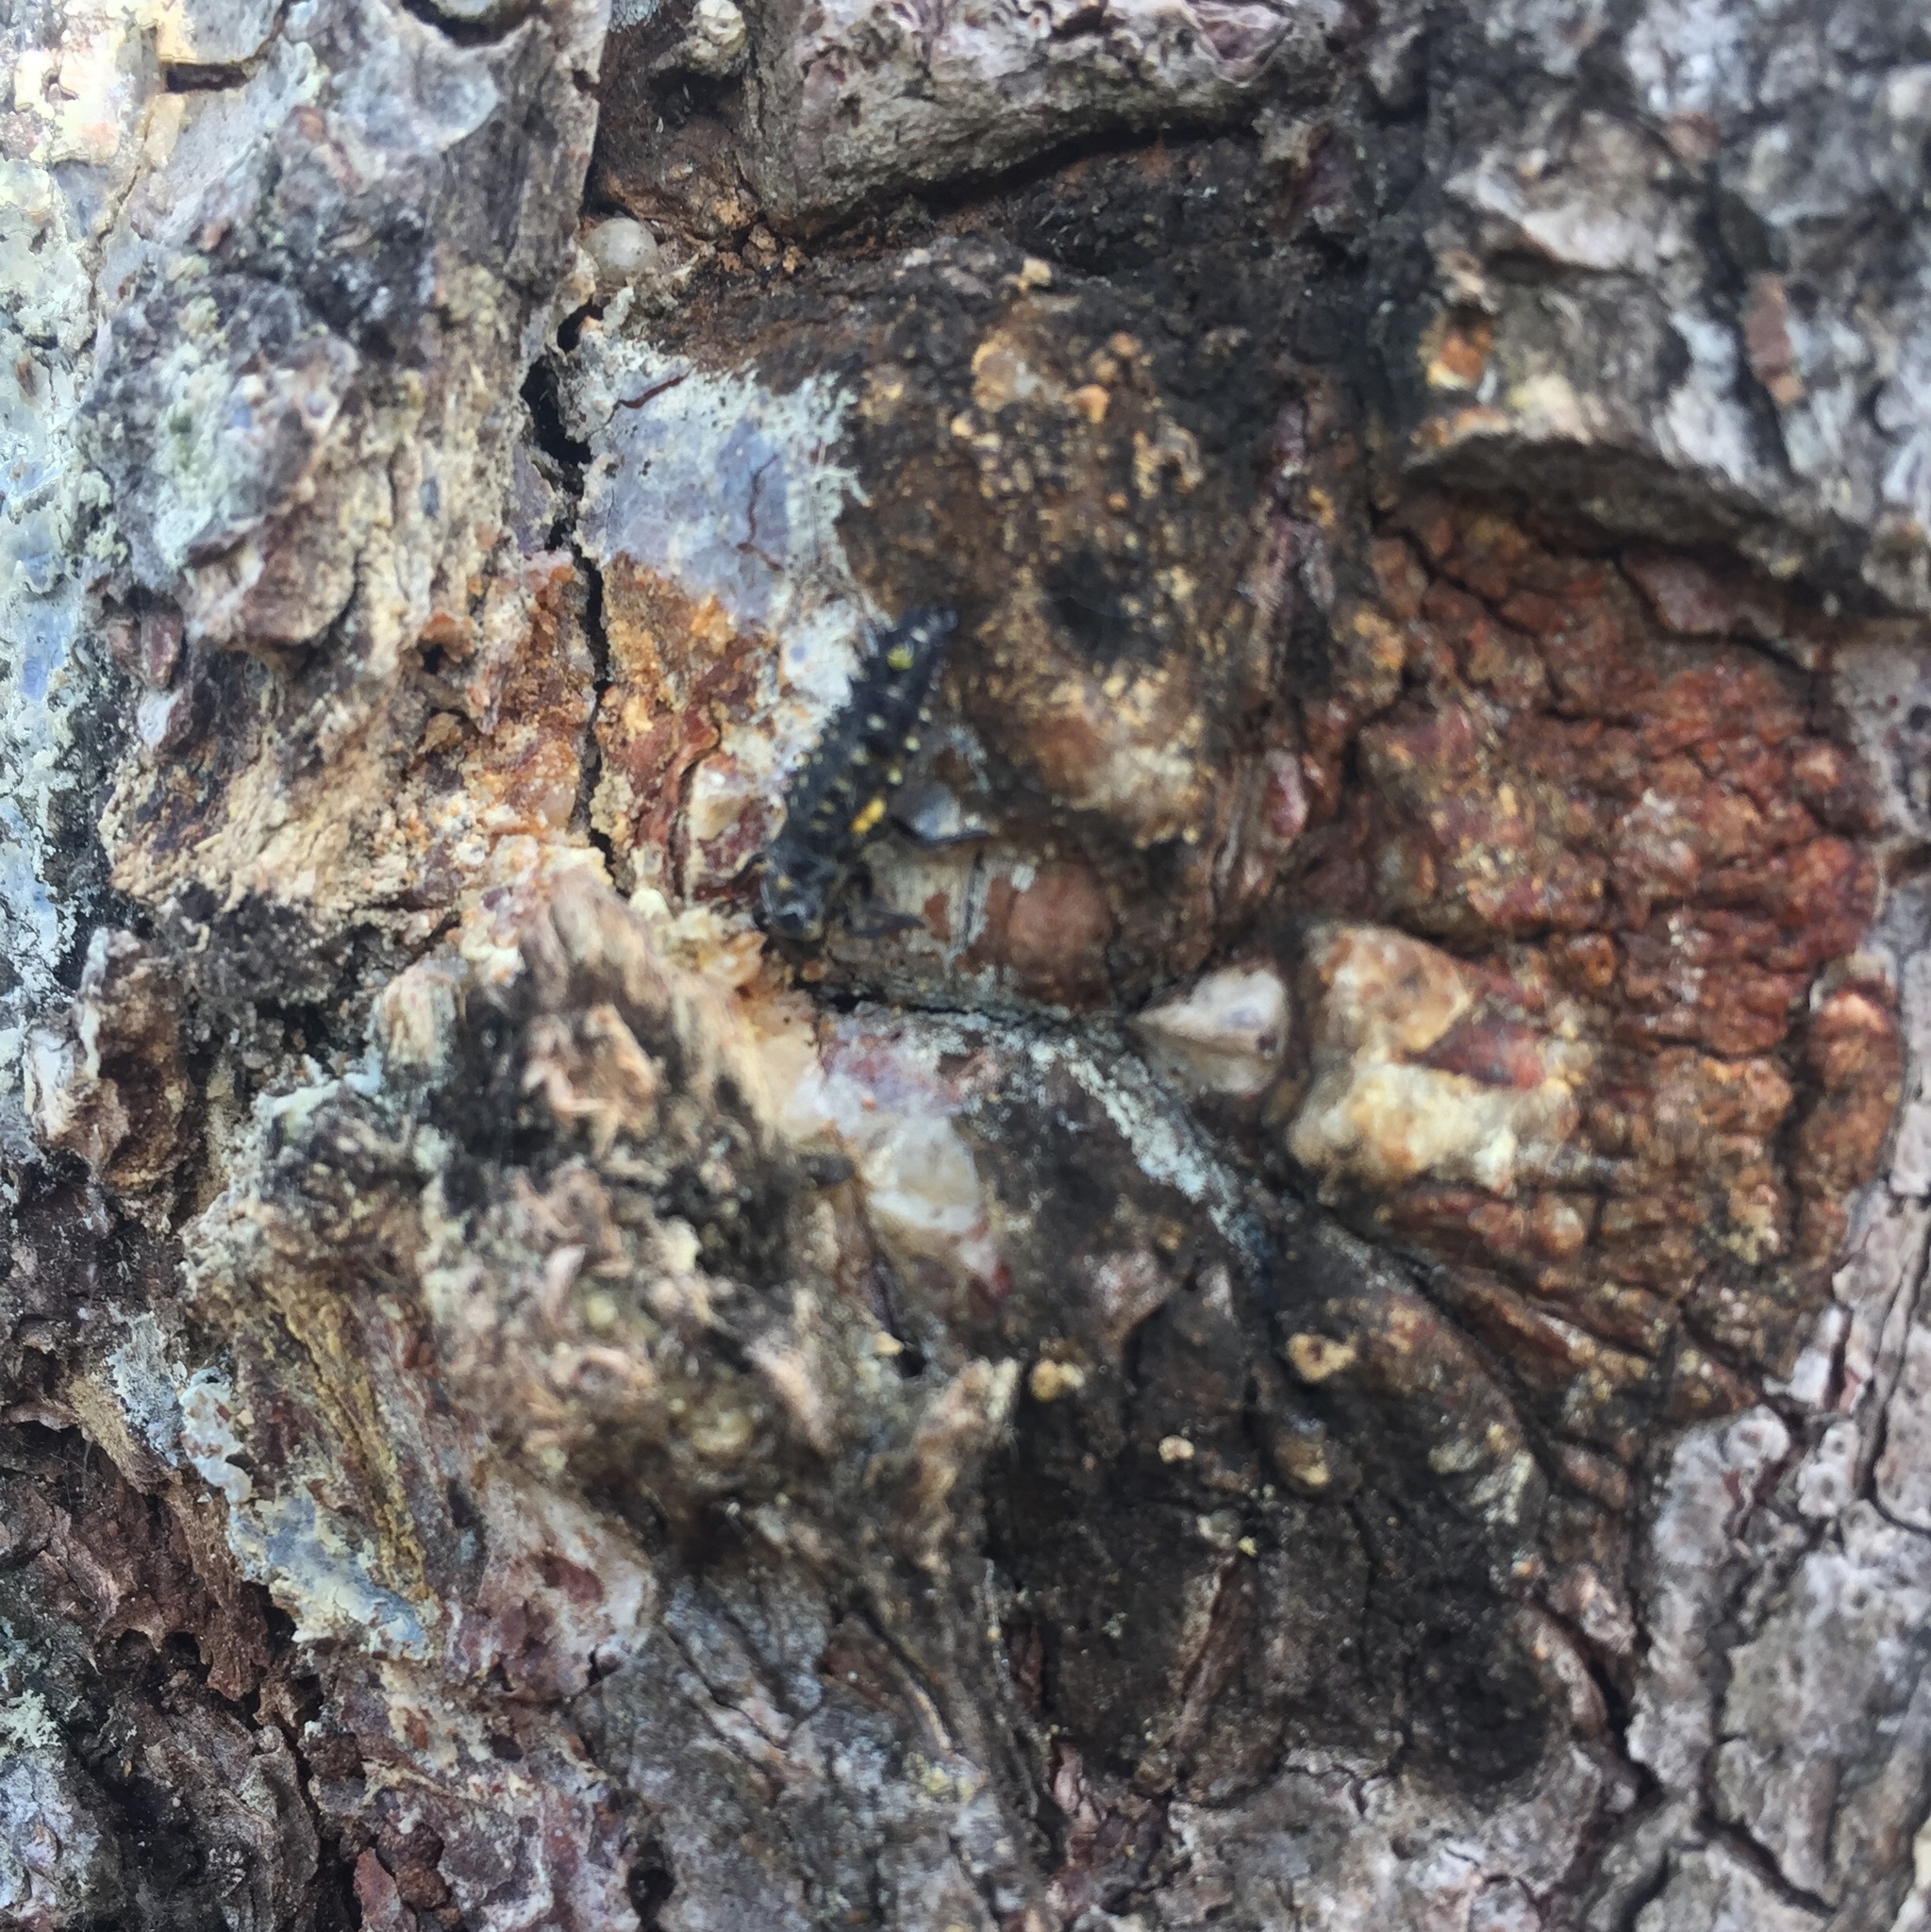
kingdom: Animalia
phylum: Arthropoda
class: Insecta
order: Coleoptera
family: Coccinellidae
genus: Harmonia
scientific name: Harmonia axyridis
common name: Harlequin ladybird
